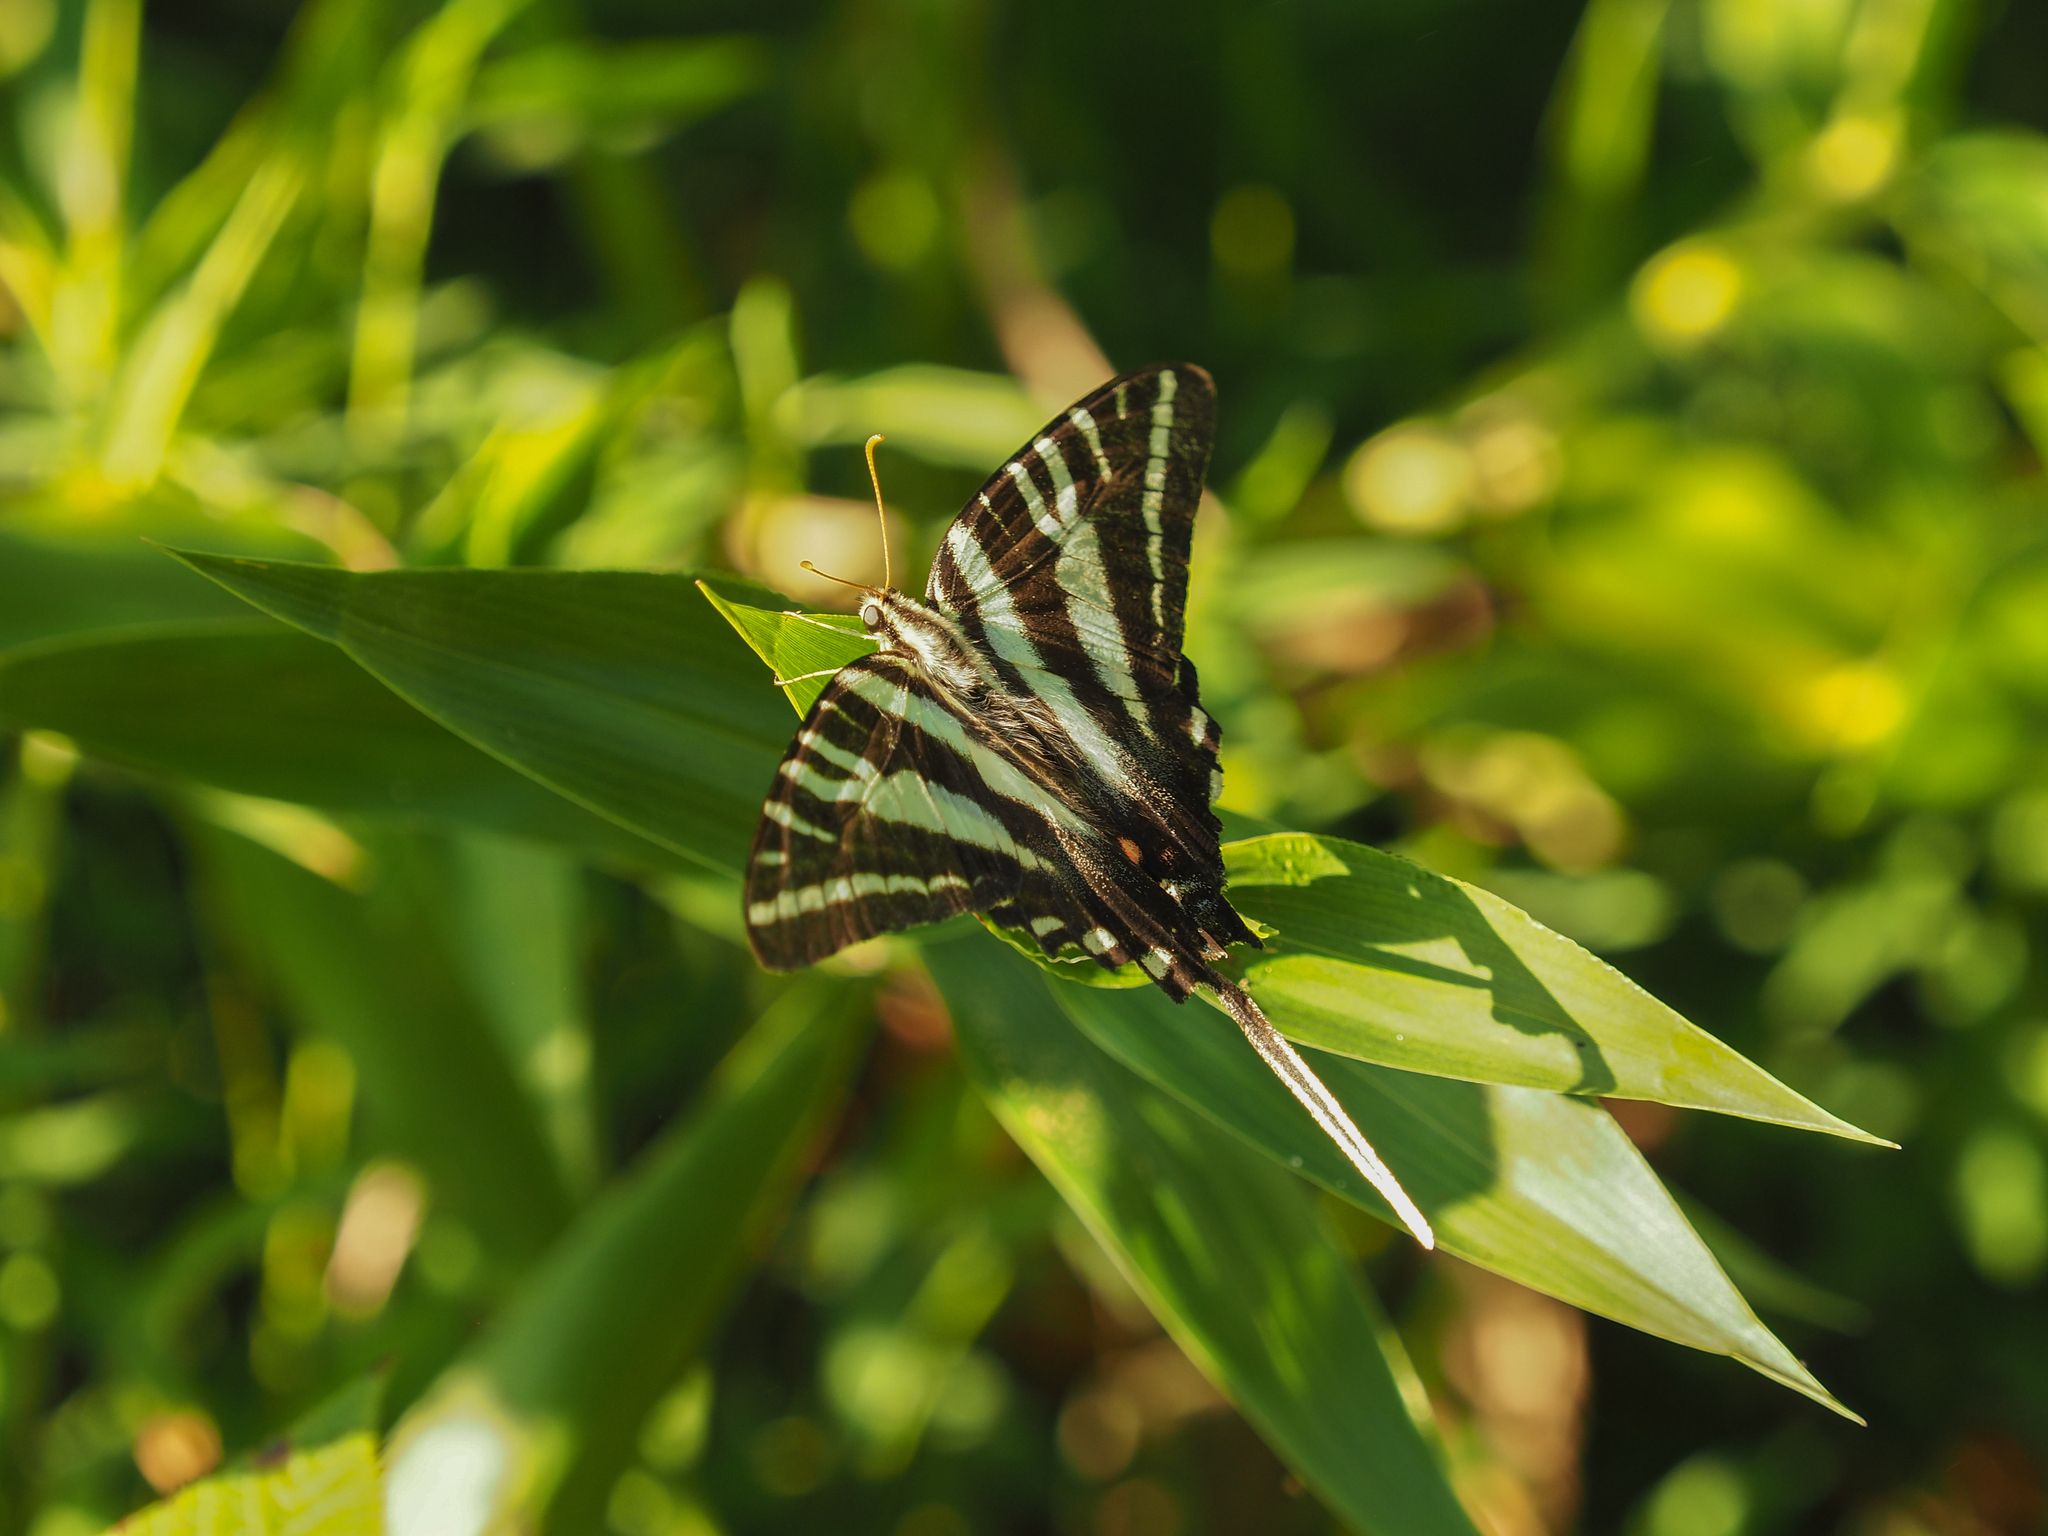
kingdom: Animalia
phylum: Arthropoda
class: Insecta
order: Lepidoptera
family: Papilionidae
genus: Protographium
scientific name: Protographium marcellus
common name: Zebra swallowtail
